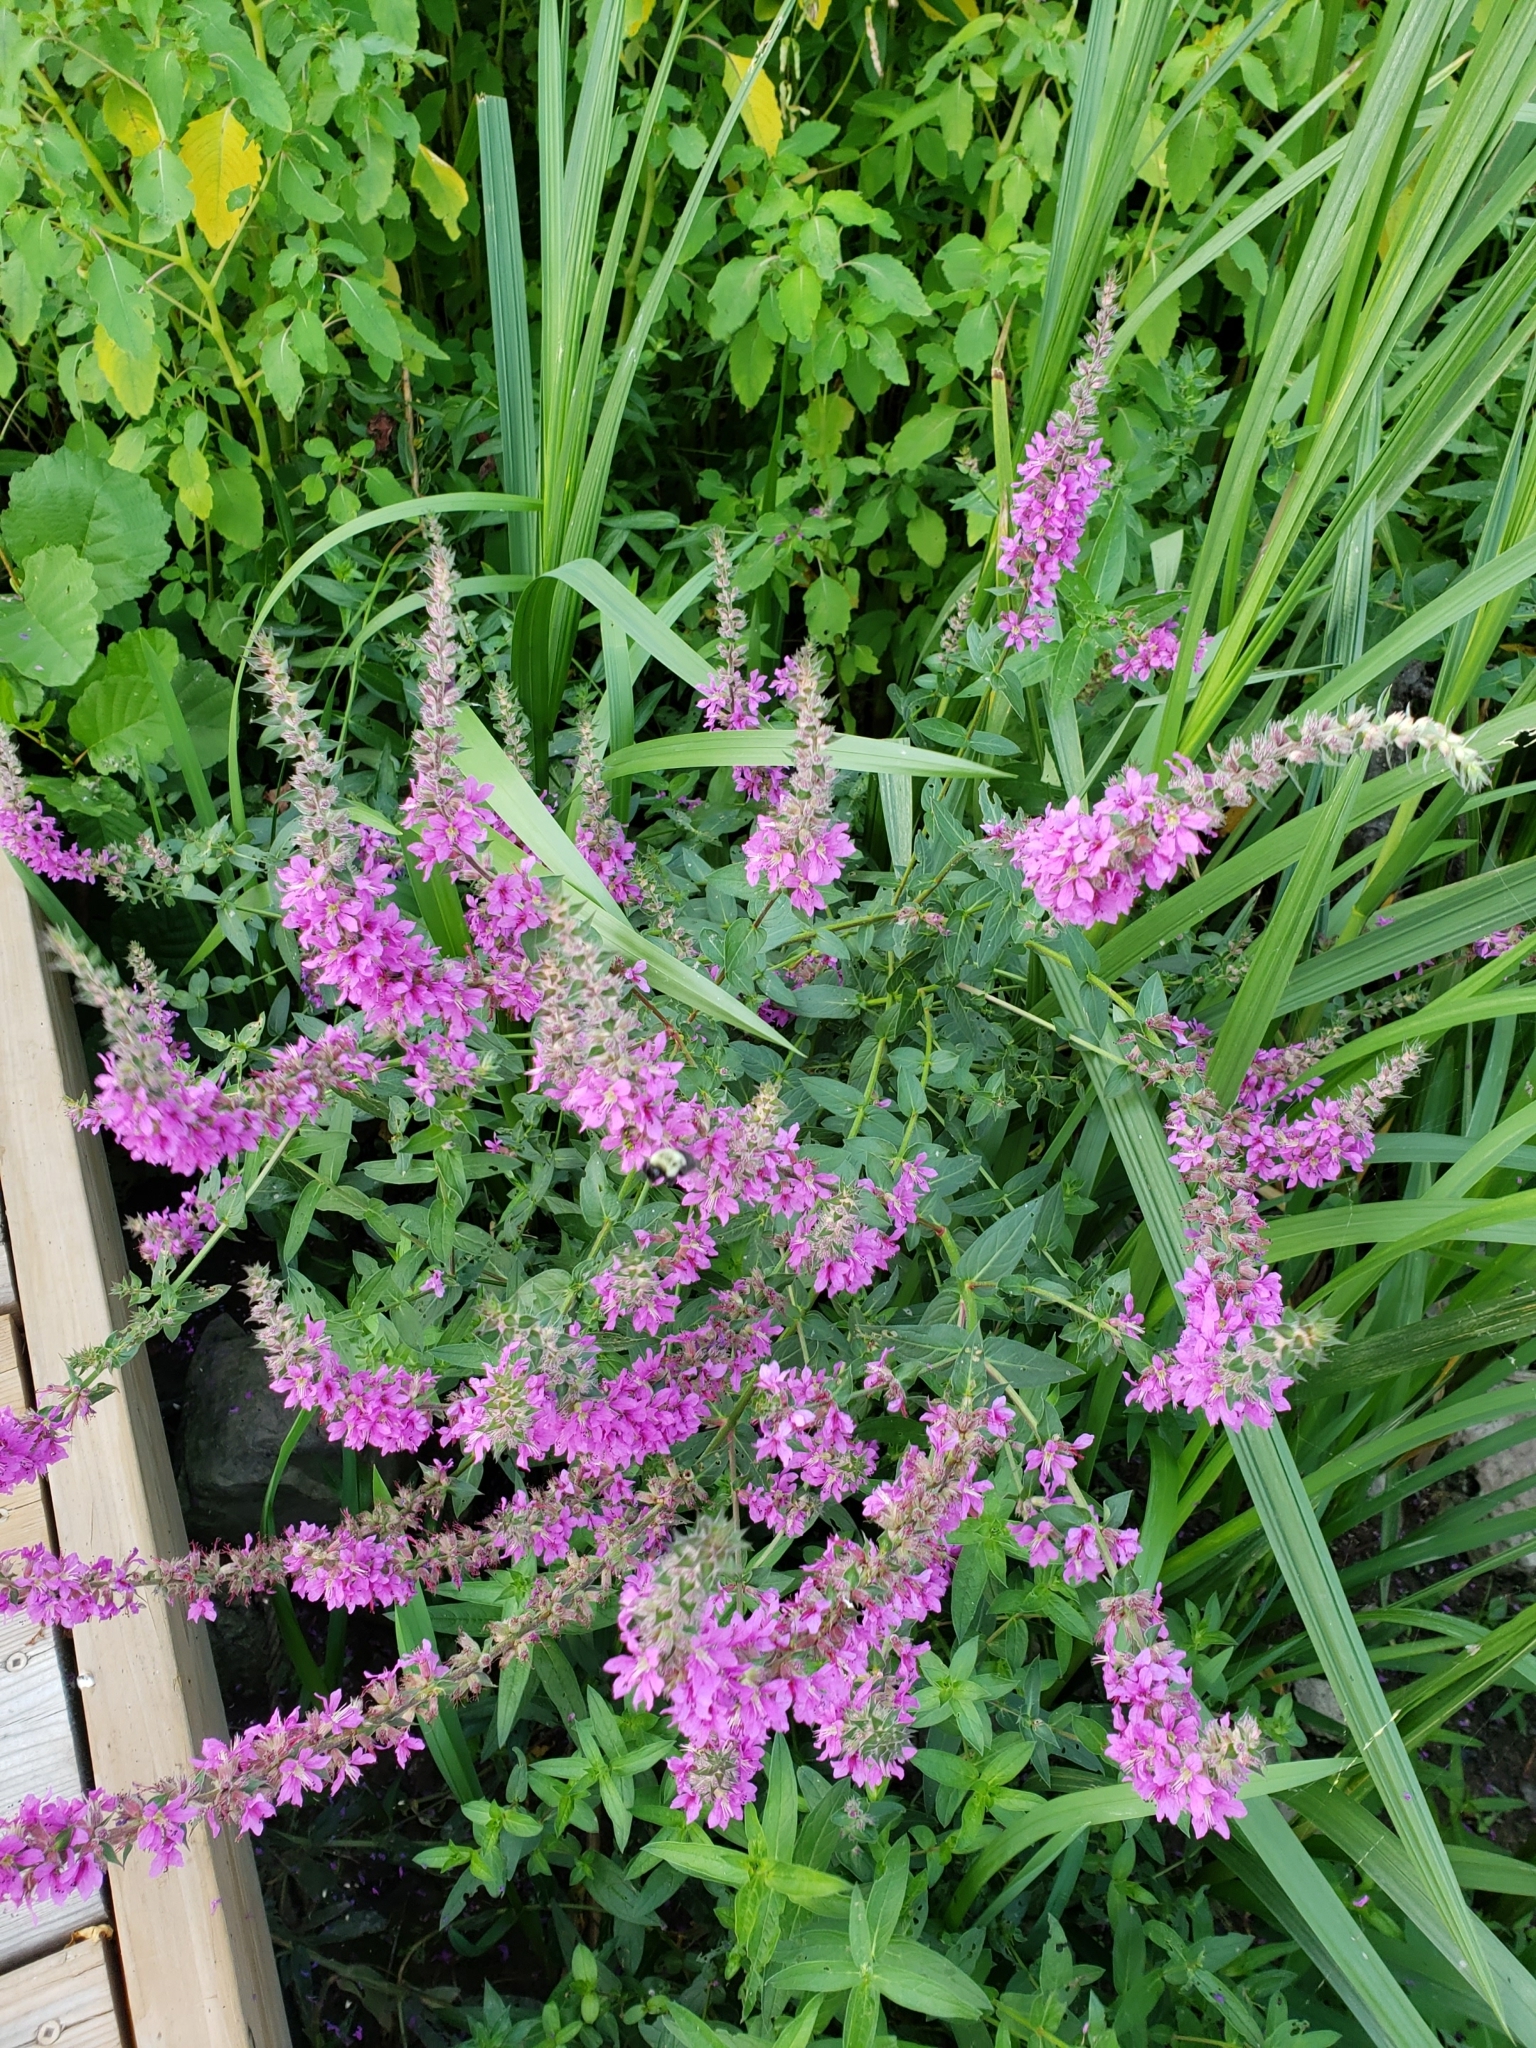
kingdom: Plantae
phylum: Tracheophyta
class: Magnoliopsida
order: Myrtales
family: Lythraceae
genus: Lythrum
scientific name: Lythrum salicaria
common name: Purple loosestrife
